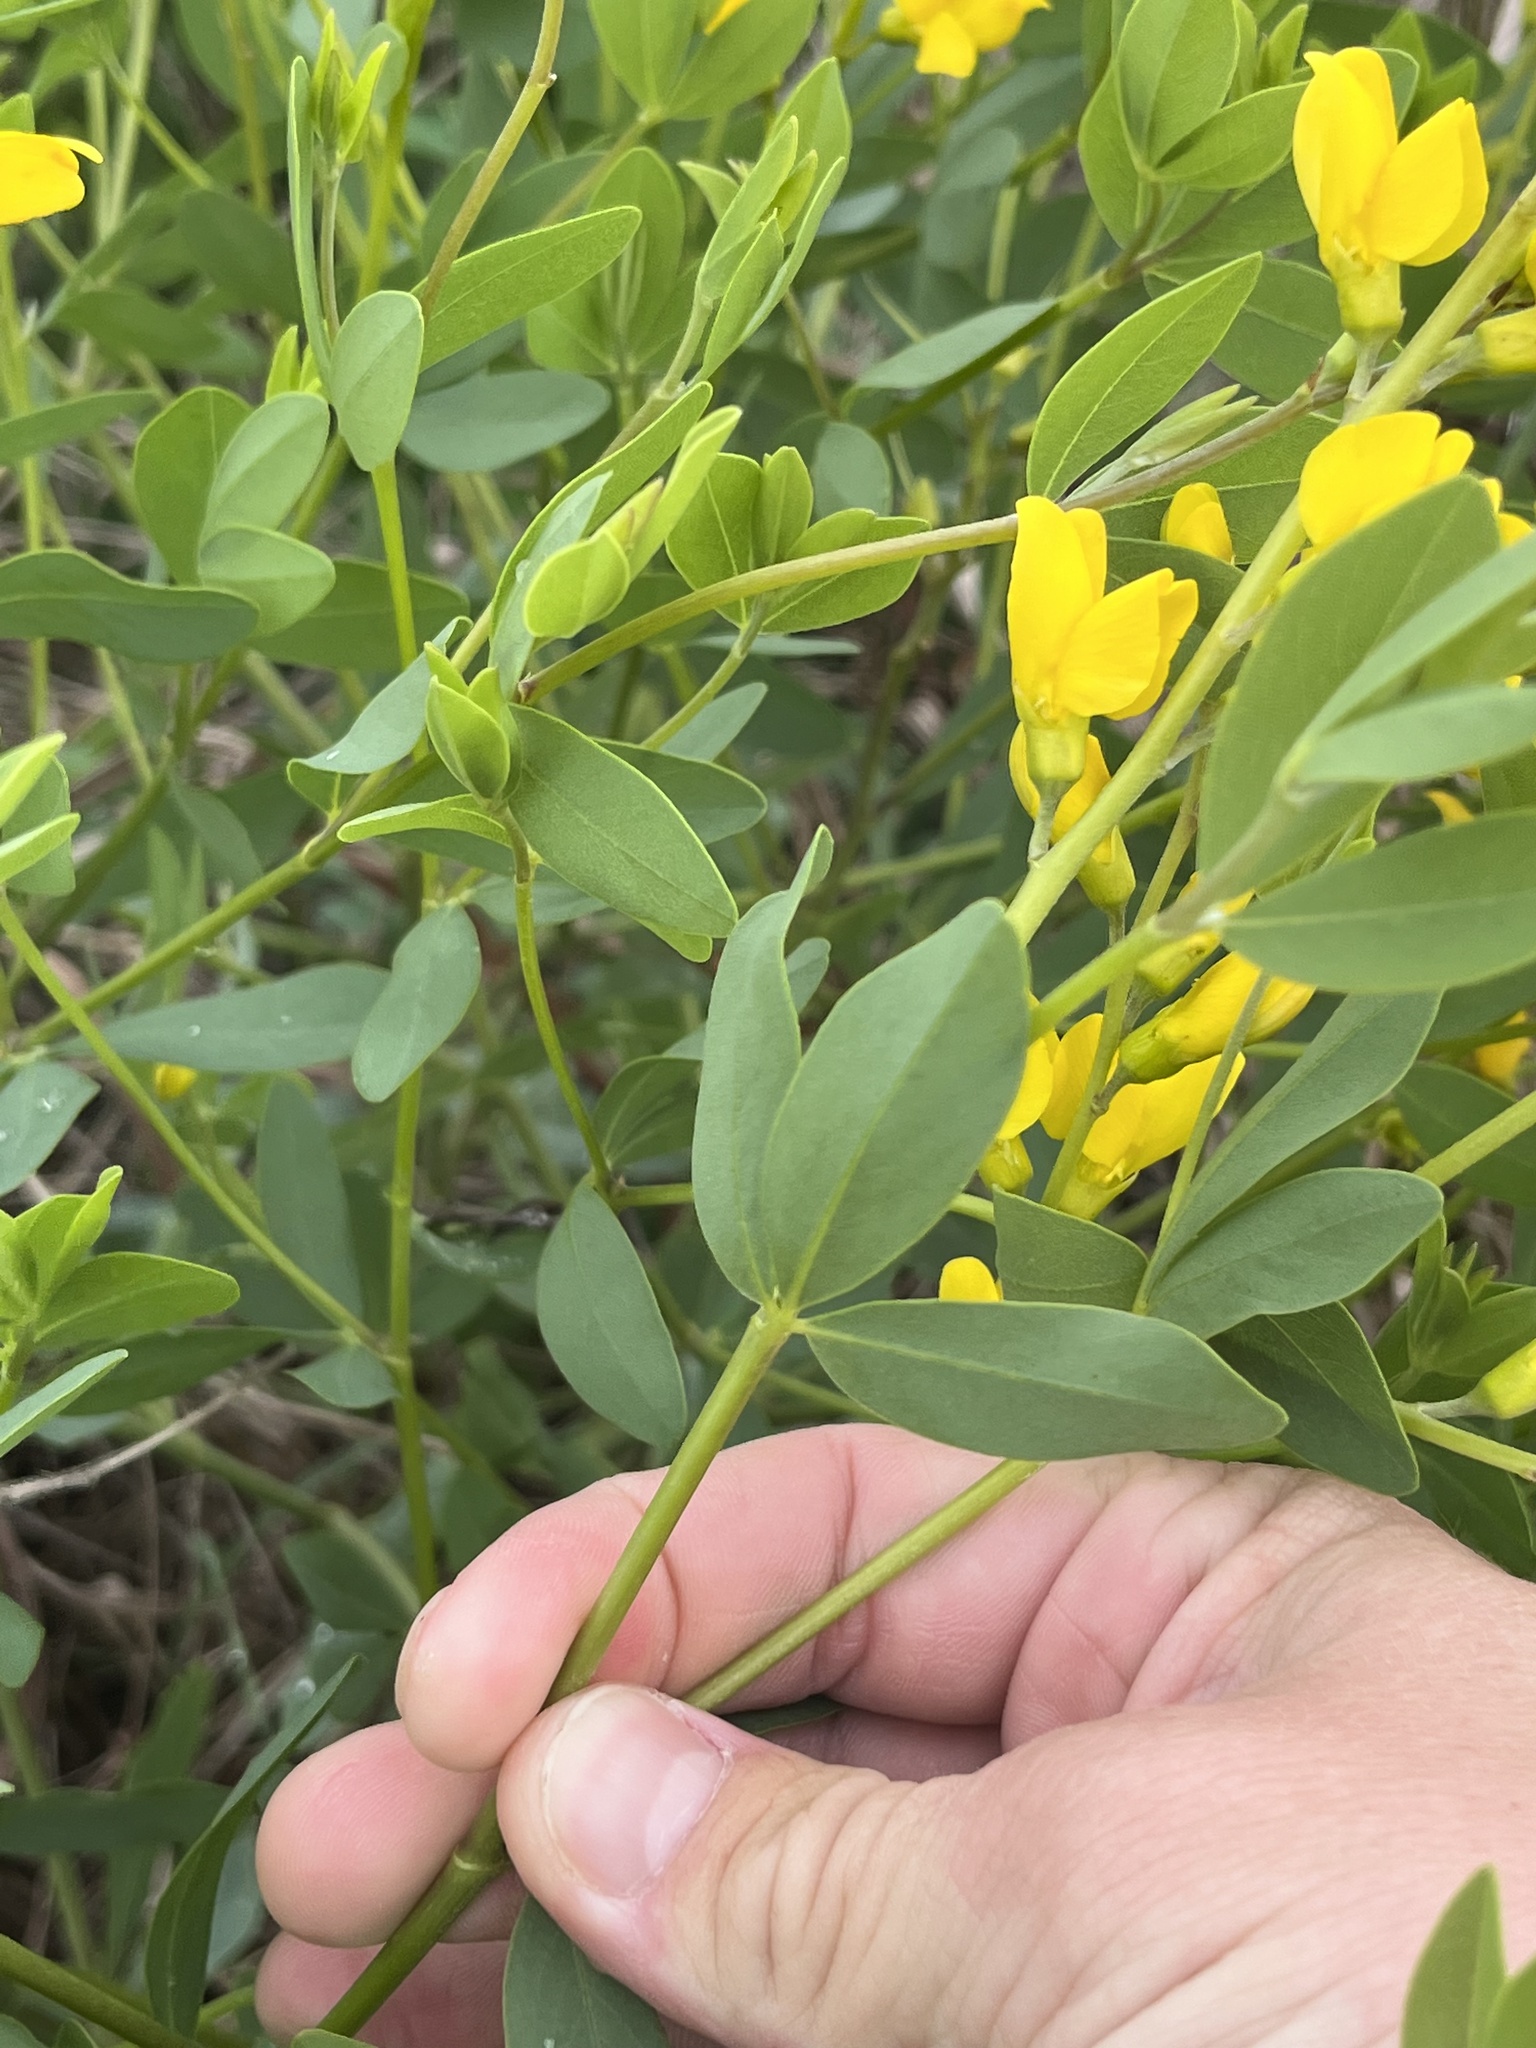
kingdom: Plantae
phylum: Tracheophyta
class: Magnoliopsida
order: Fabales
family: Fabaceae
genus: Baptisia
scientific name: Baptisia sphaerocarpa
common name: Round wild indigo
